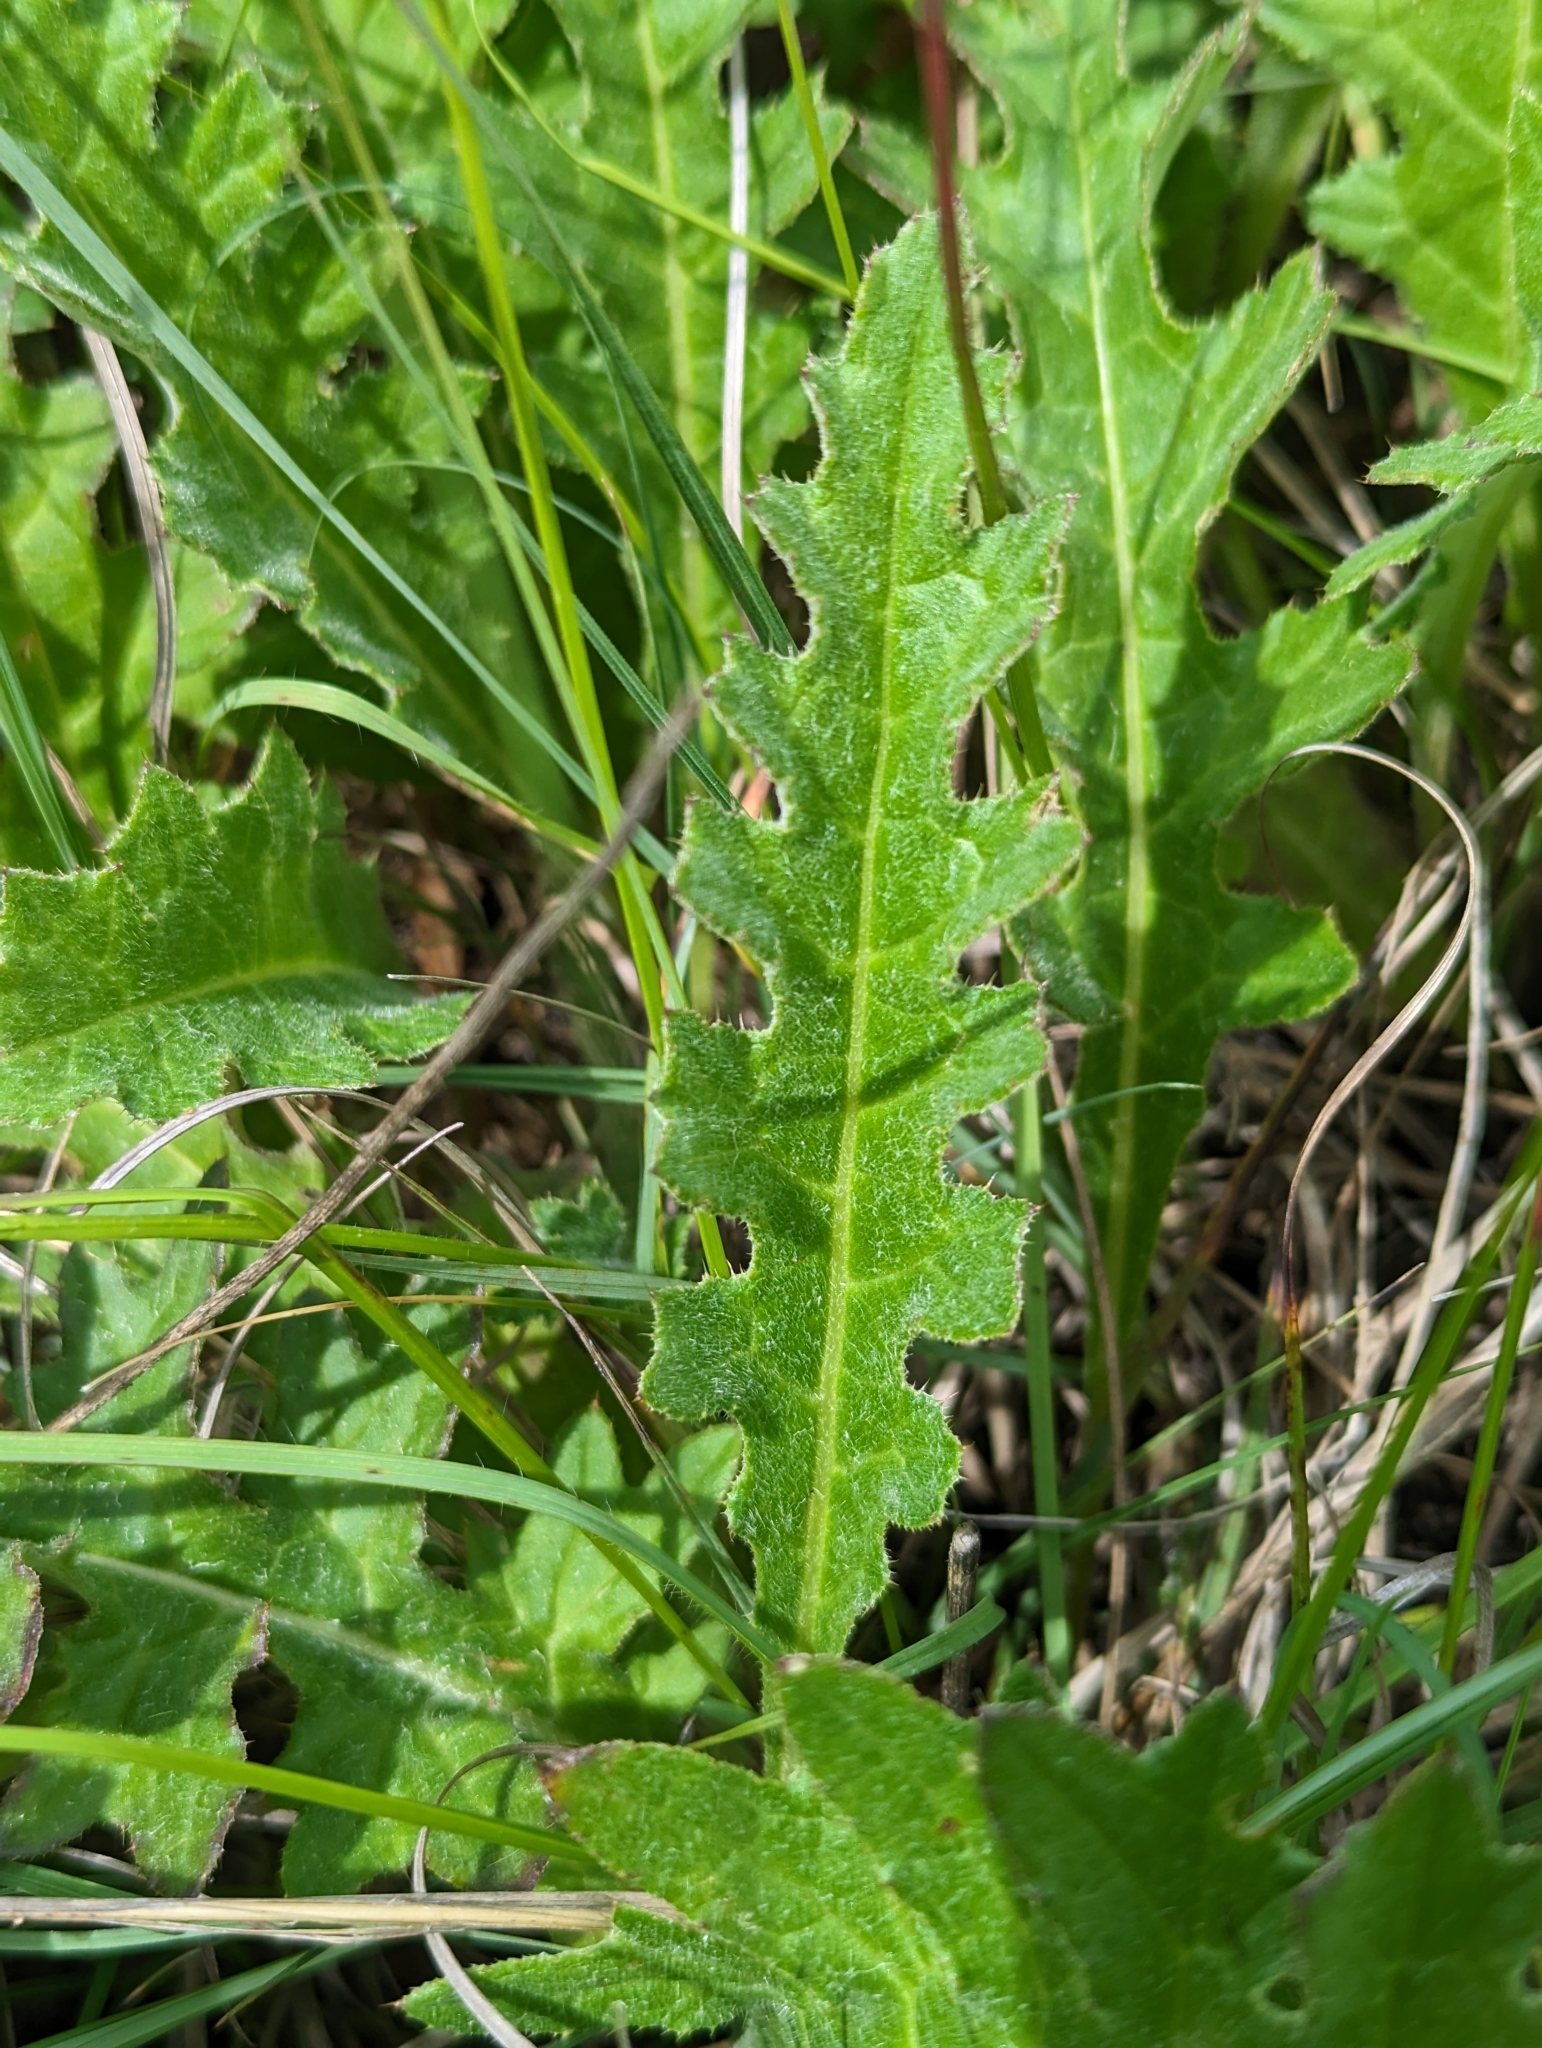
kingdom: Plantae
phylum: Tracheophyta
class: Magnoliopsida
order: Asterales
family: Asteraceae
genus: Cirsium
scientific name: Cirsium tuberosum
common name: Tuberous thistle
